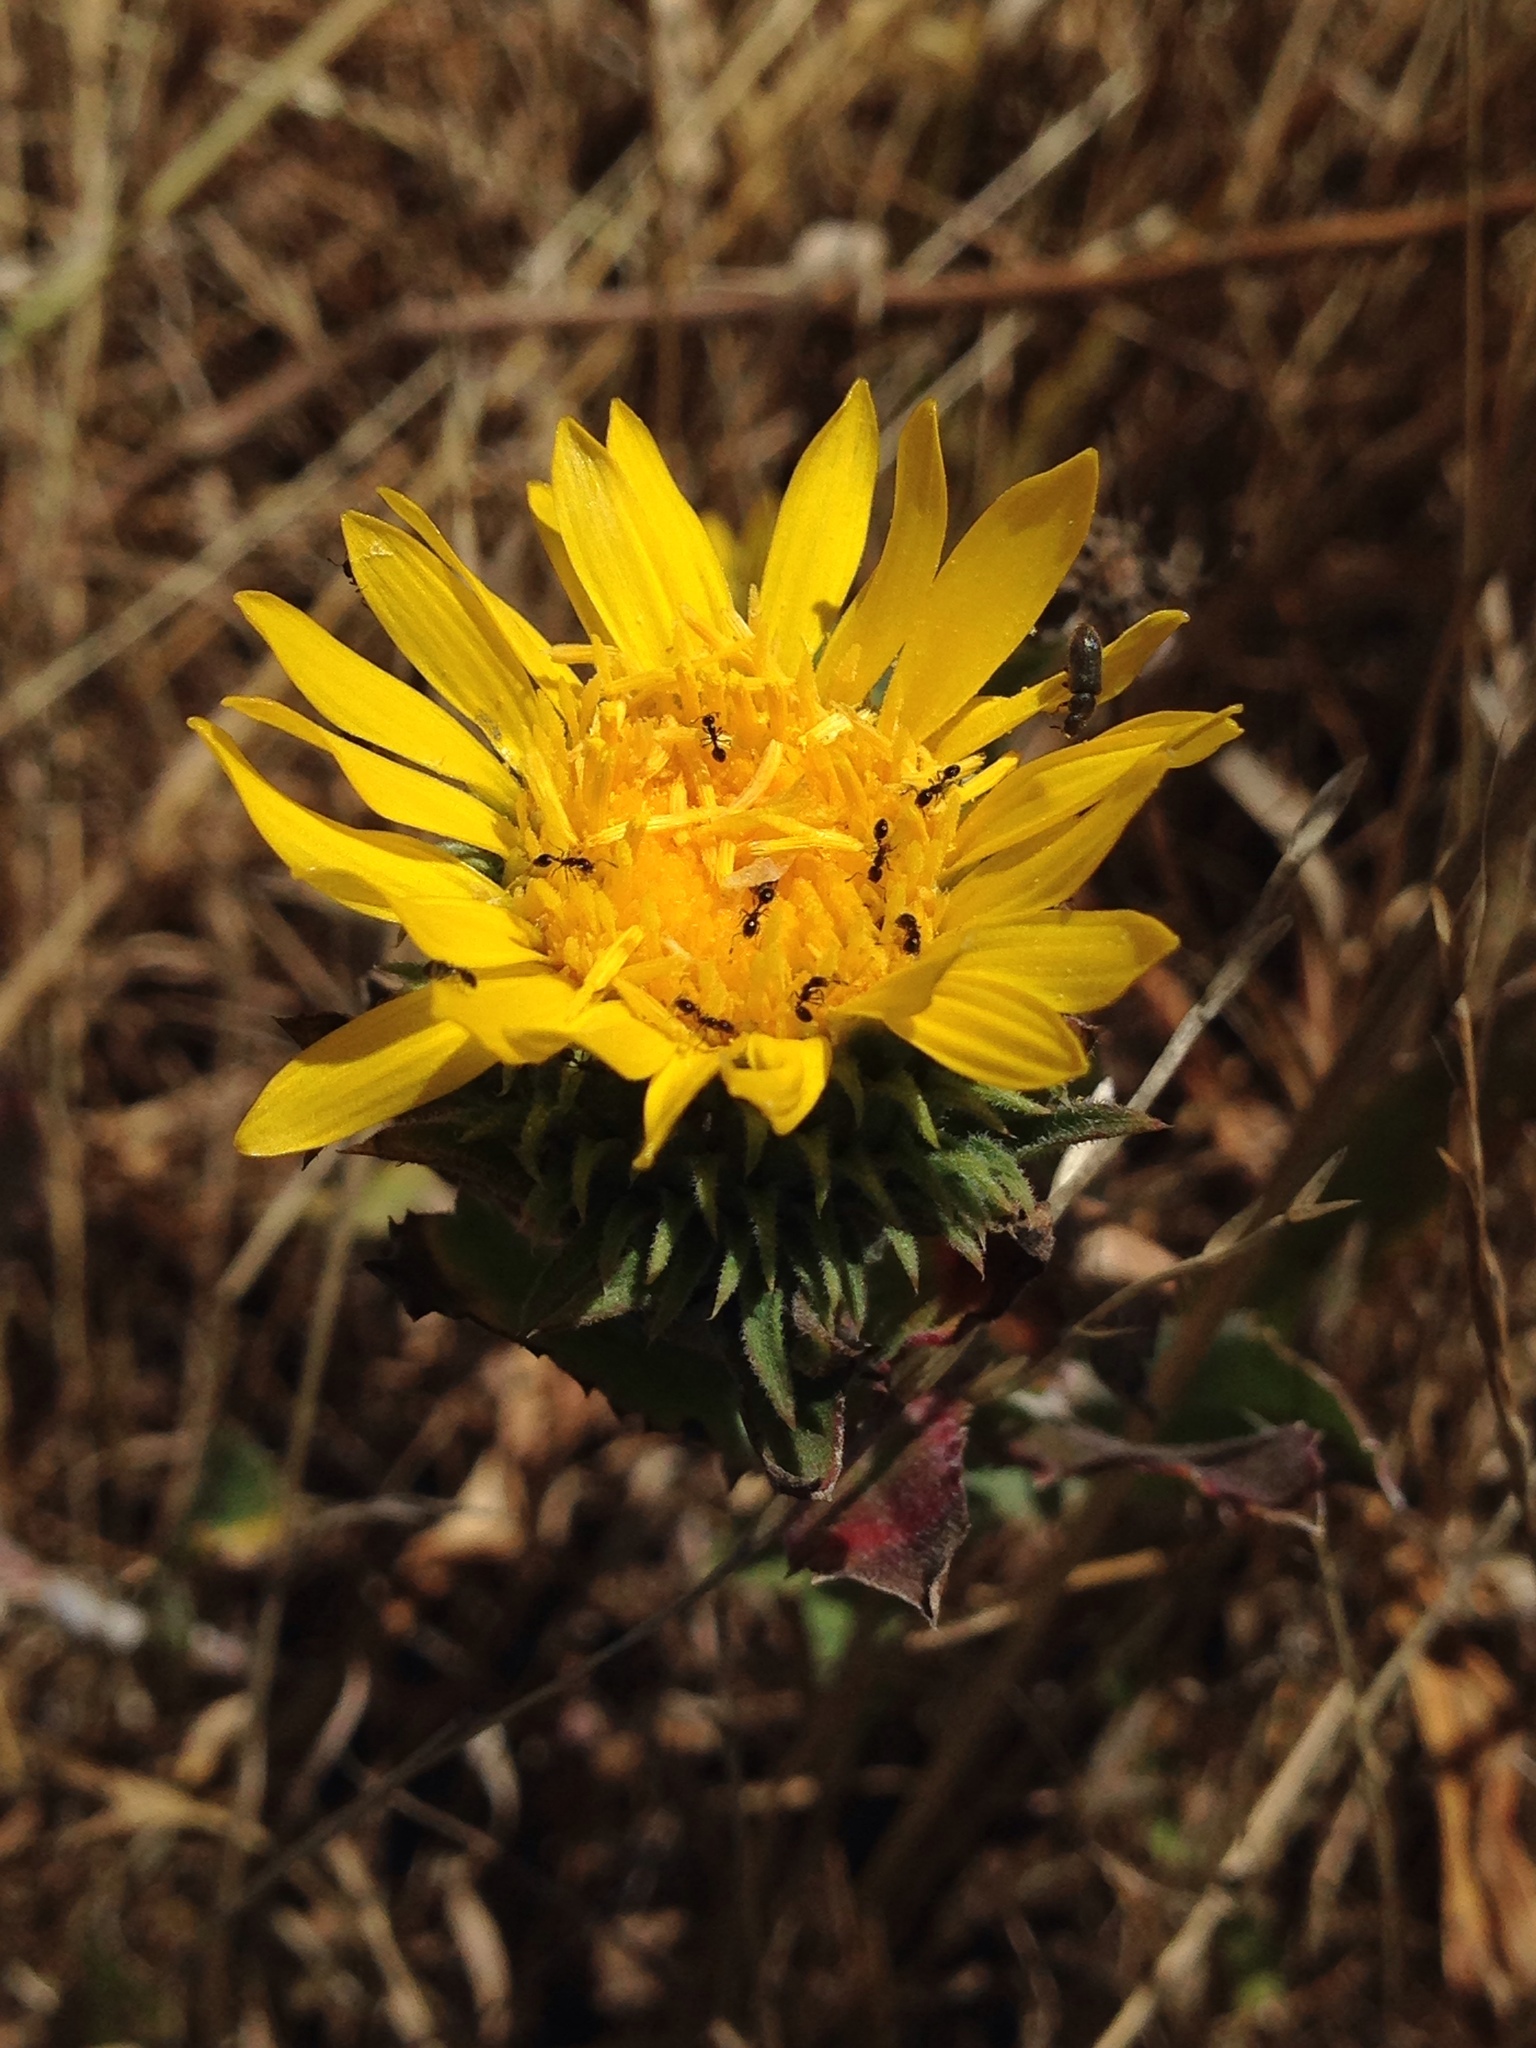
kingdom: Plantae
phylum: Tracheophyta
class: Magnoliopsida
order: Asterales
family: Asteraceae
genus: Grindelia
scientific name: Grindelia hirsutula
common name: Hairy gumweed
